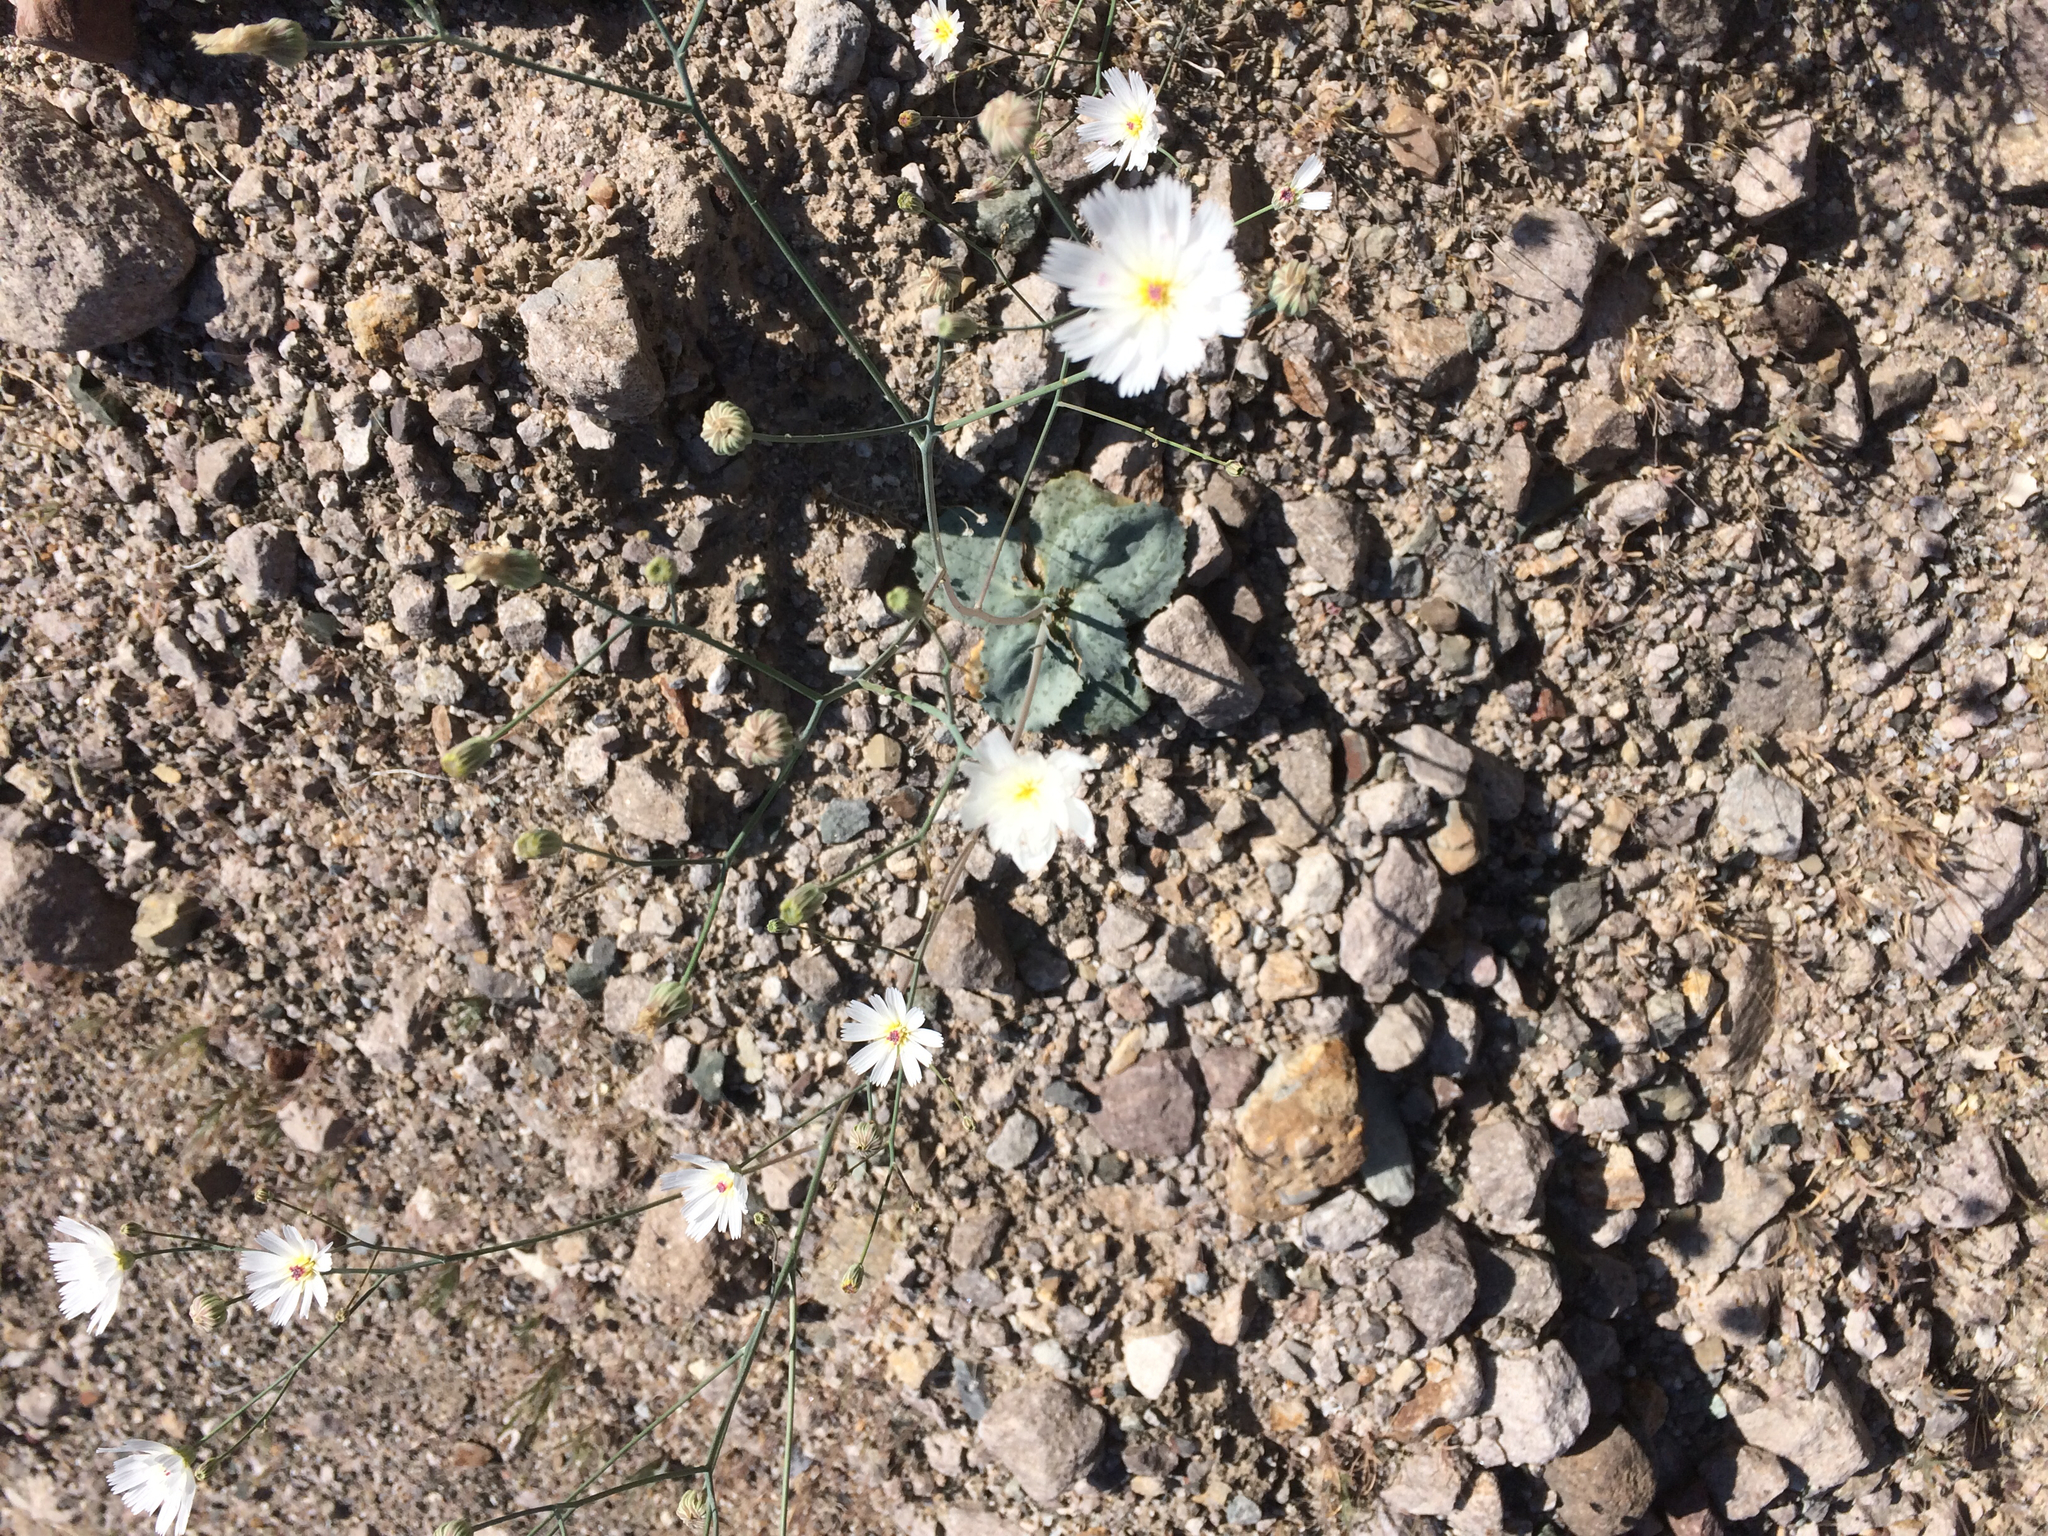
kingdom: Plantae
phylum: Tracheophyta
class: Magnoliopsida
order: Asterales
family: Asteraceae
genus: Atrichoseris
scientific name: Atrichoseris platyphylla
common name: Tobaccoweed
